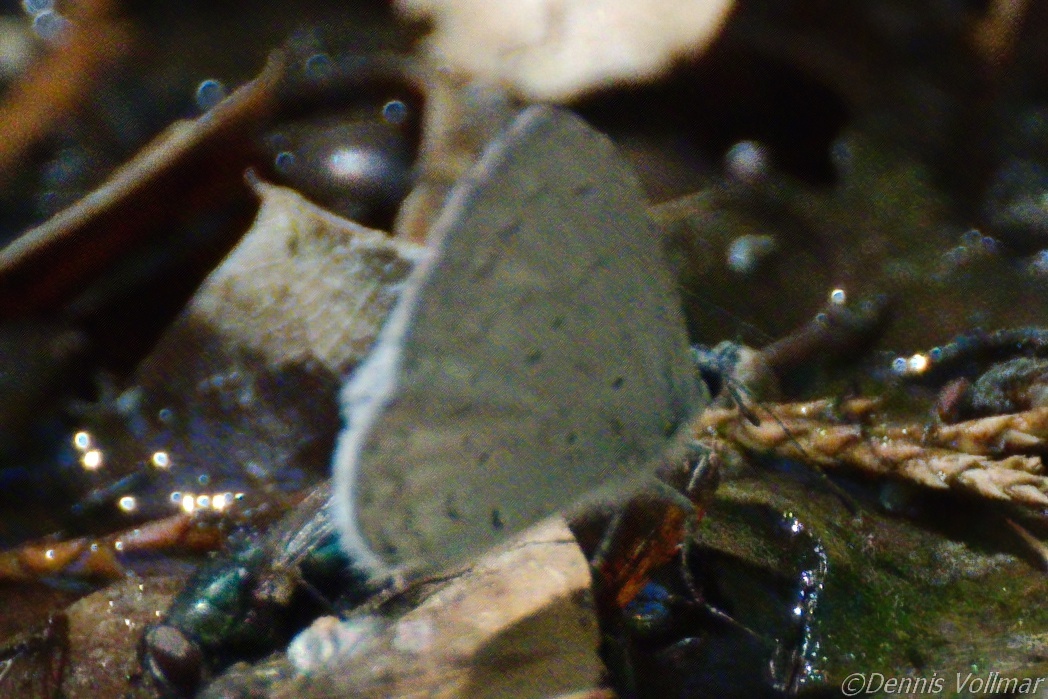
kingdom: Animalia
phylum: Arthropoda
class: Insecta
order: Lepidoptera
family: Lycaenidae
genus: Celastrina
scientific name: Celastrina ladon
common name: Spring azure
